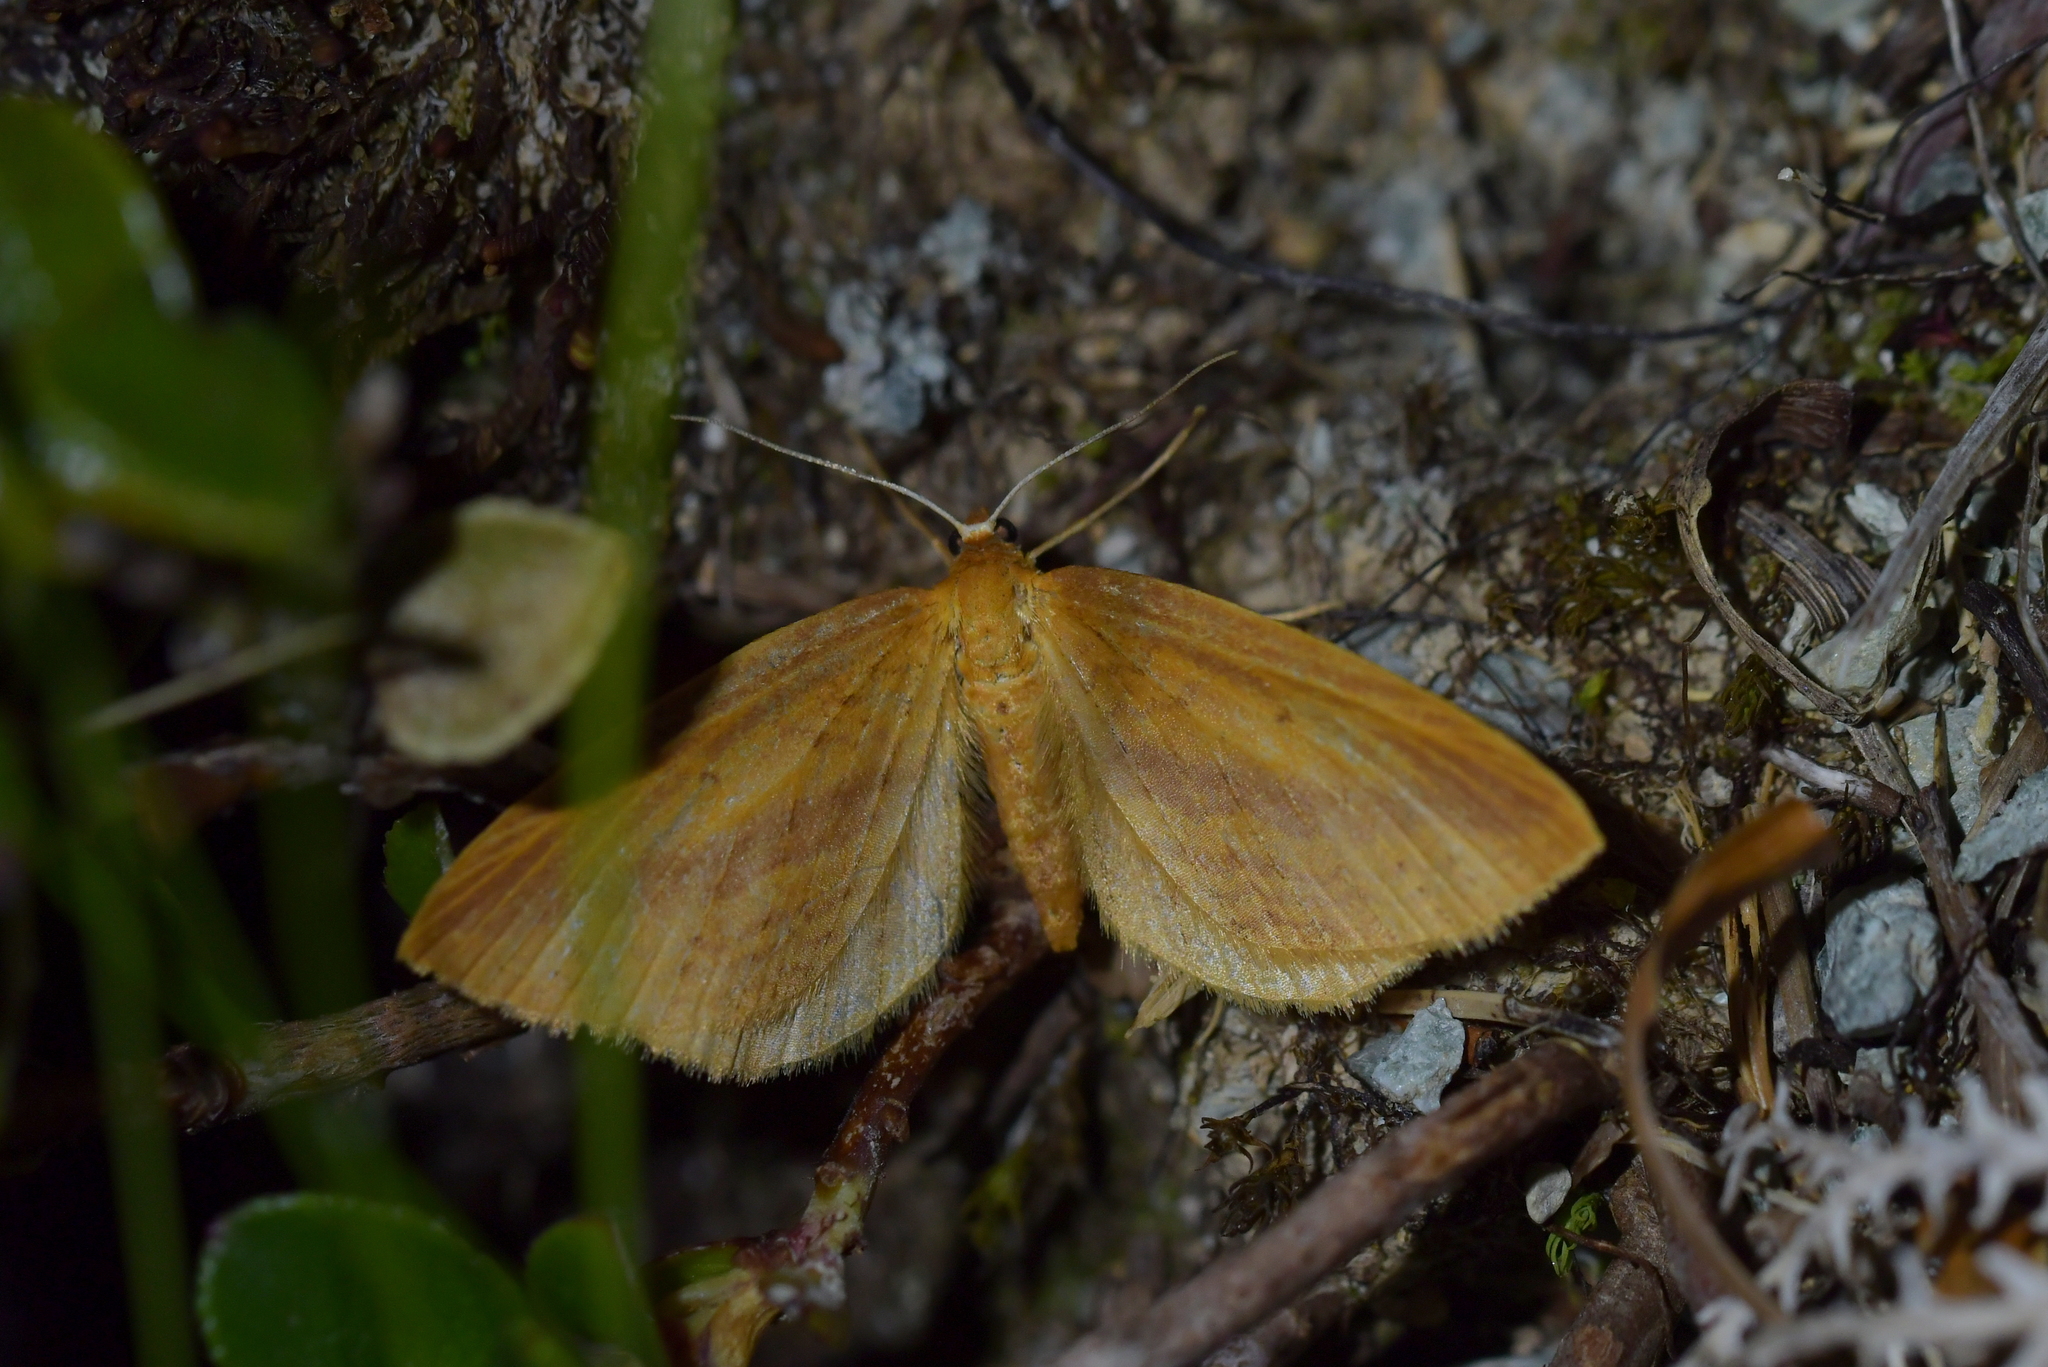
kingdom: Animalia
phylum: Arthropoda
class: Insecta
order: Lepidoptera
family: Geometridae
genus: Epiphryne
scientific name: Epiphryne charidema
